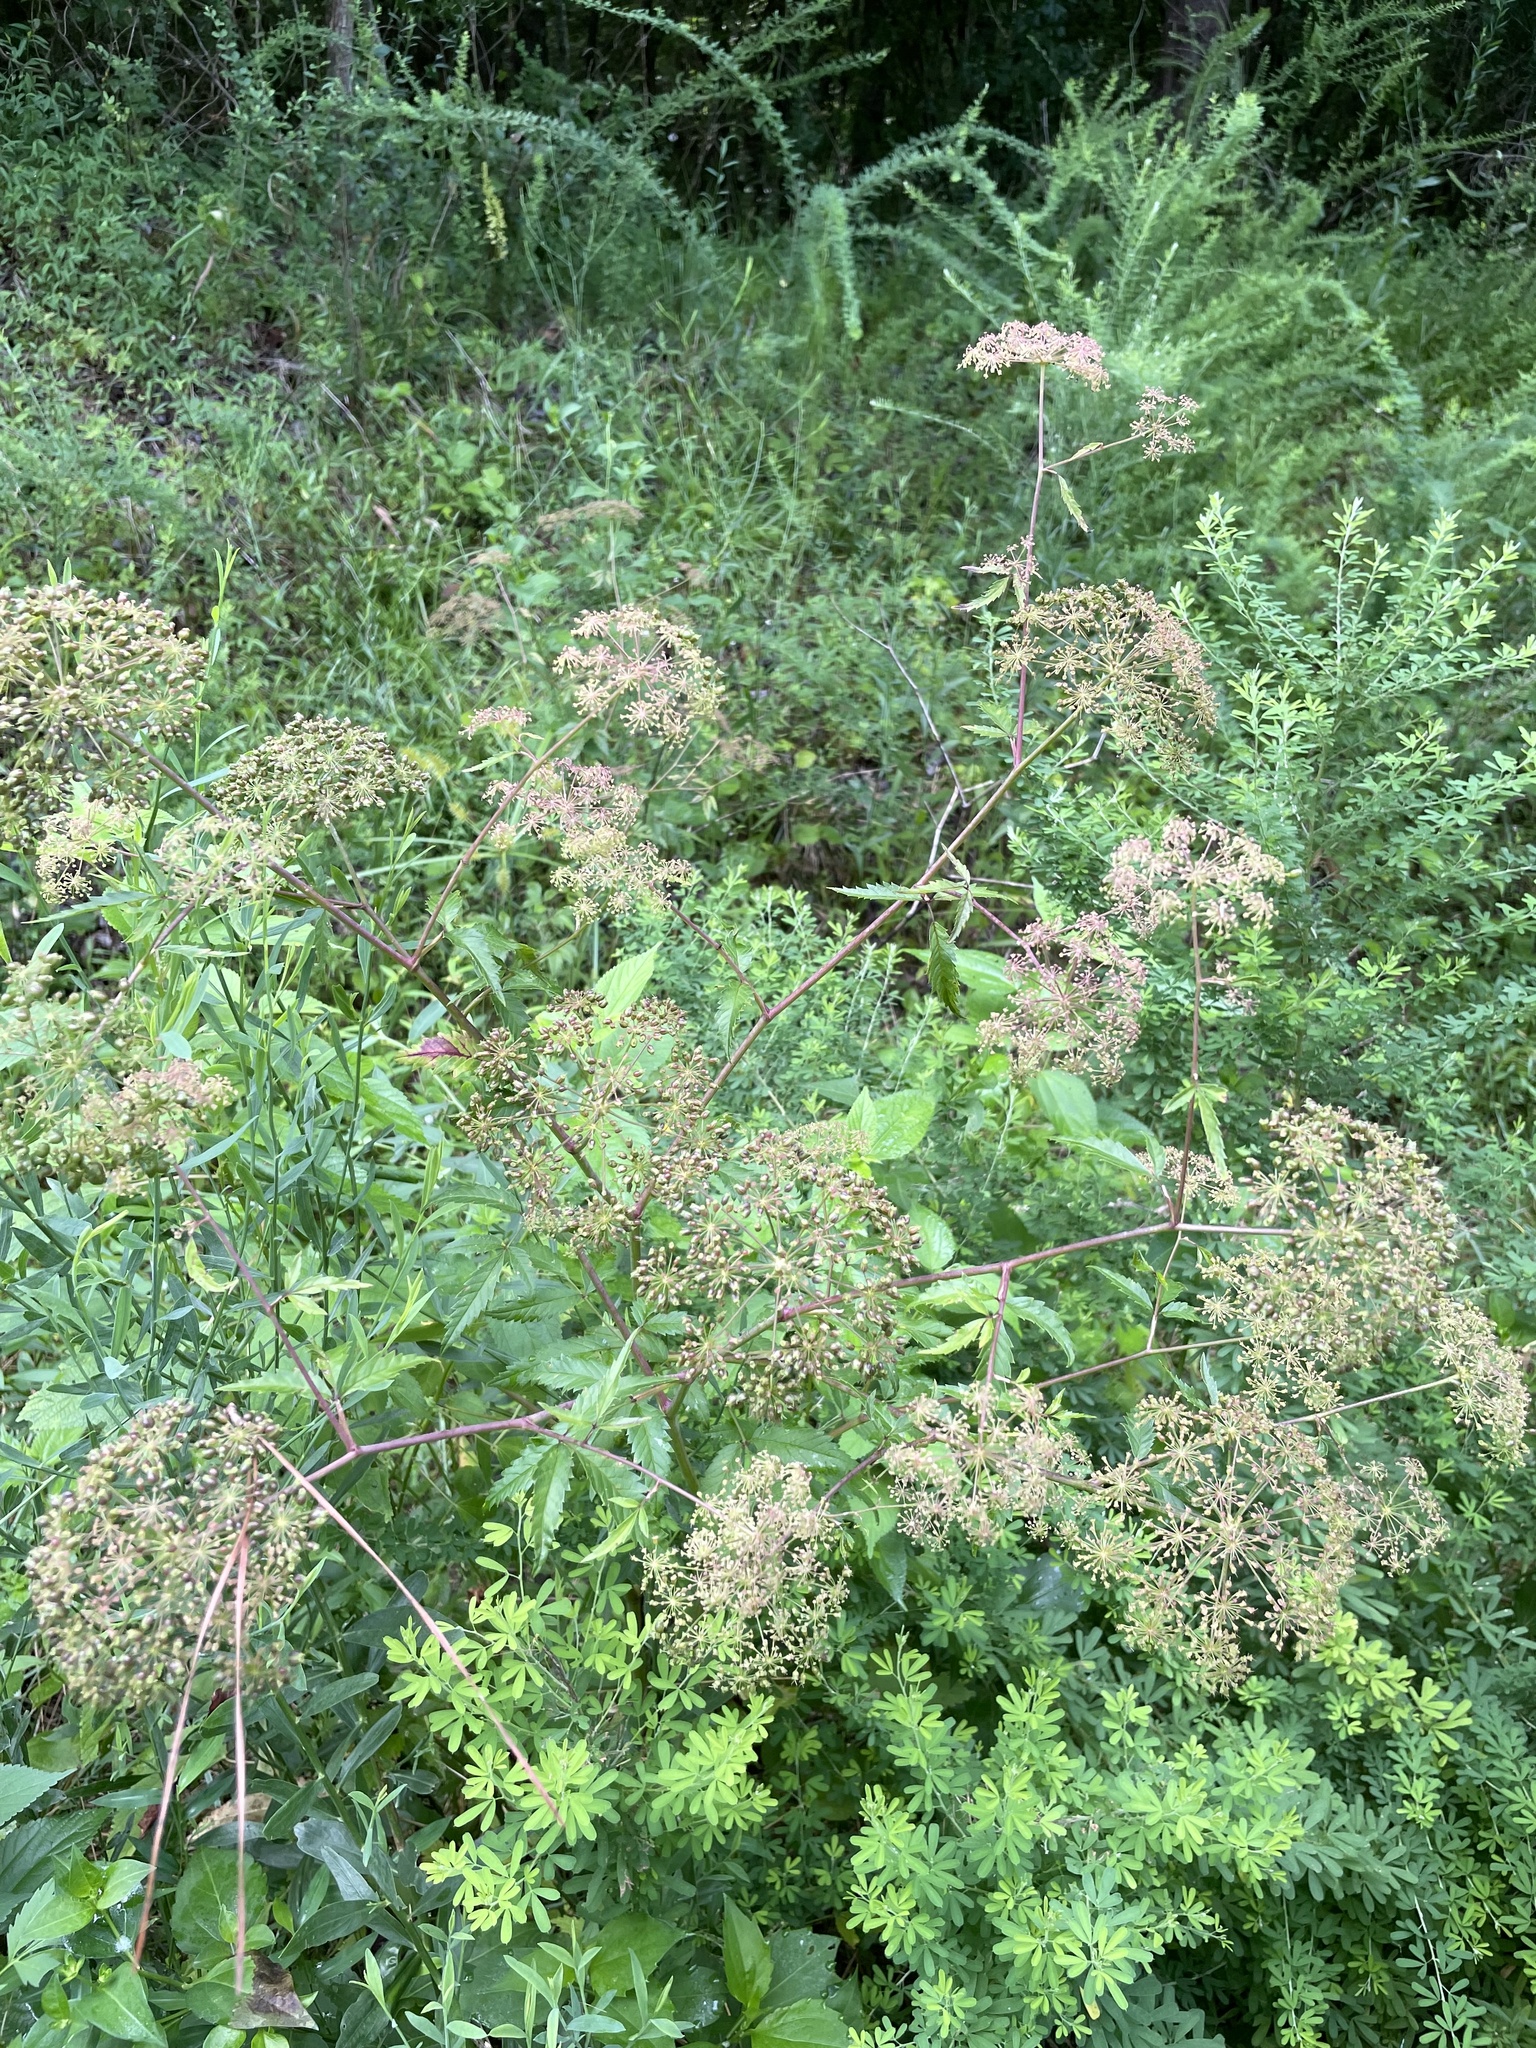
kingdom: Plantae
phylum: Tracheophyta
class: Magnoliopsida
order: Apiales
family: Apiaceae
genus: Cicuta
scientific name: Cicuta maculata
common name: Spotted cowbane
